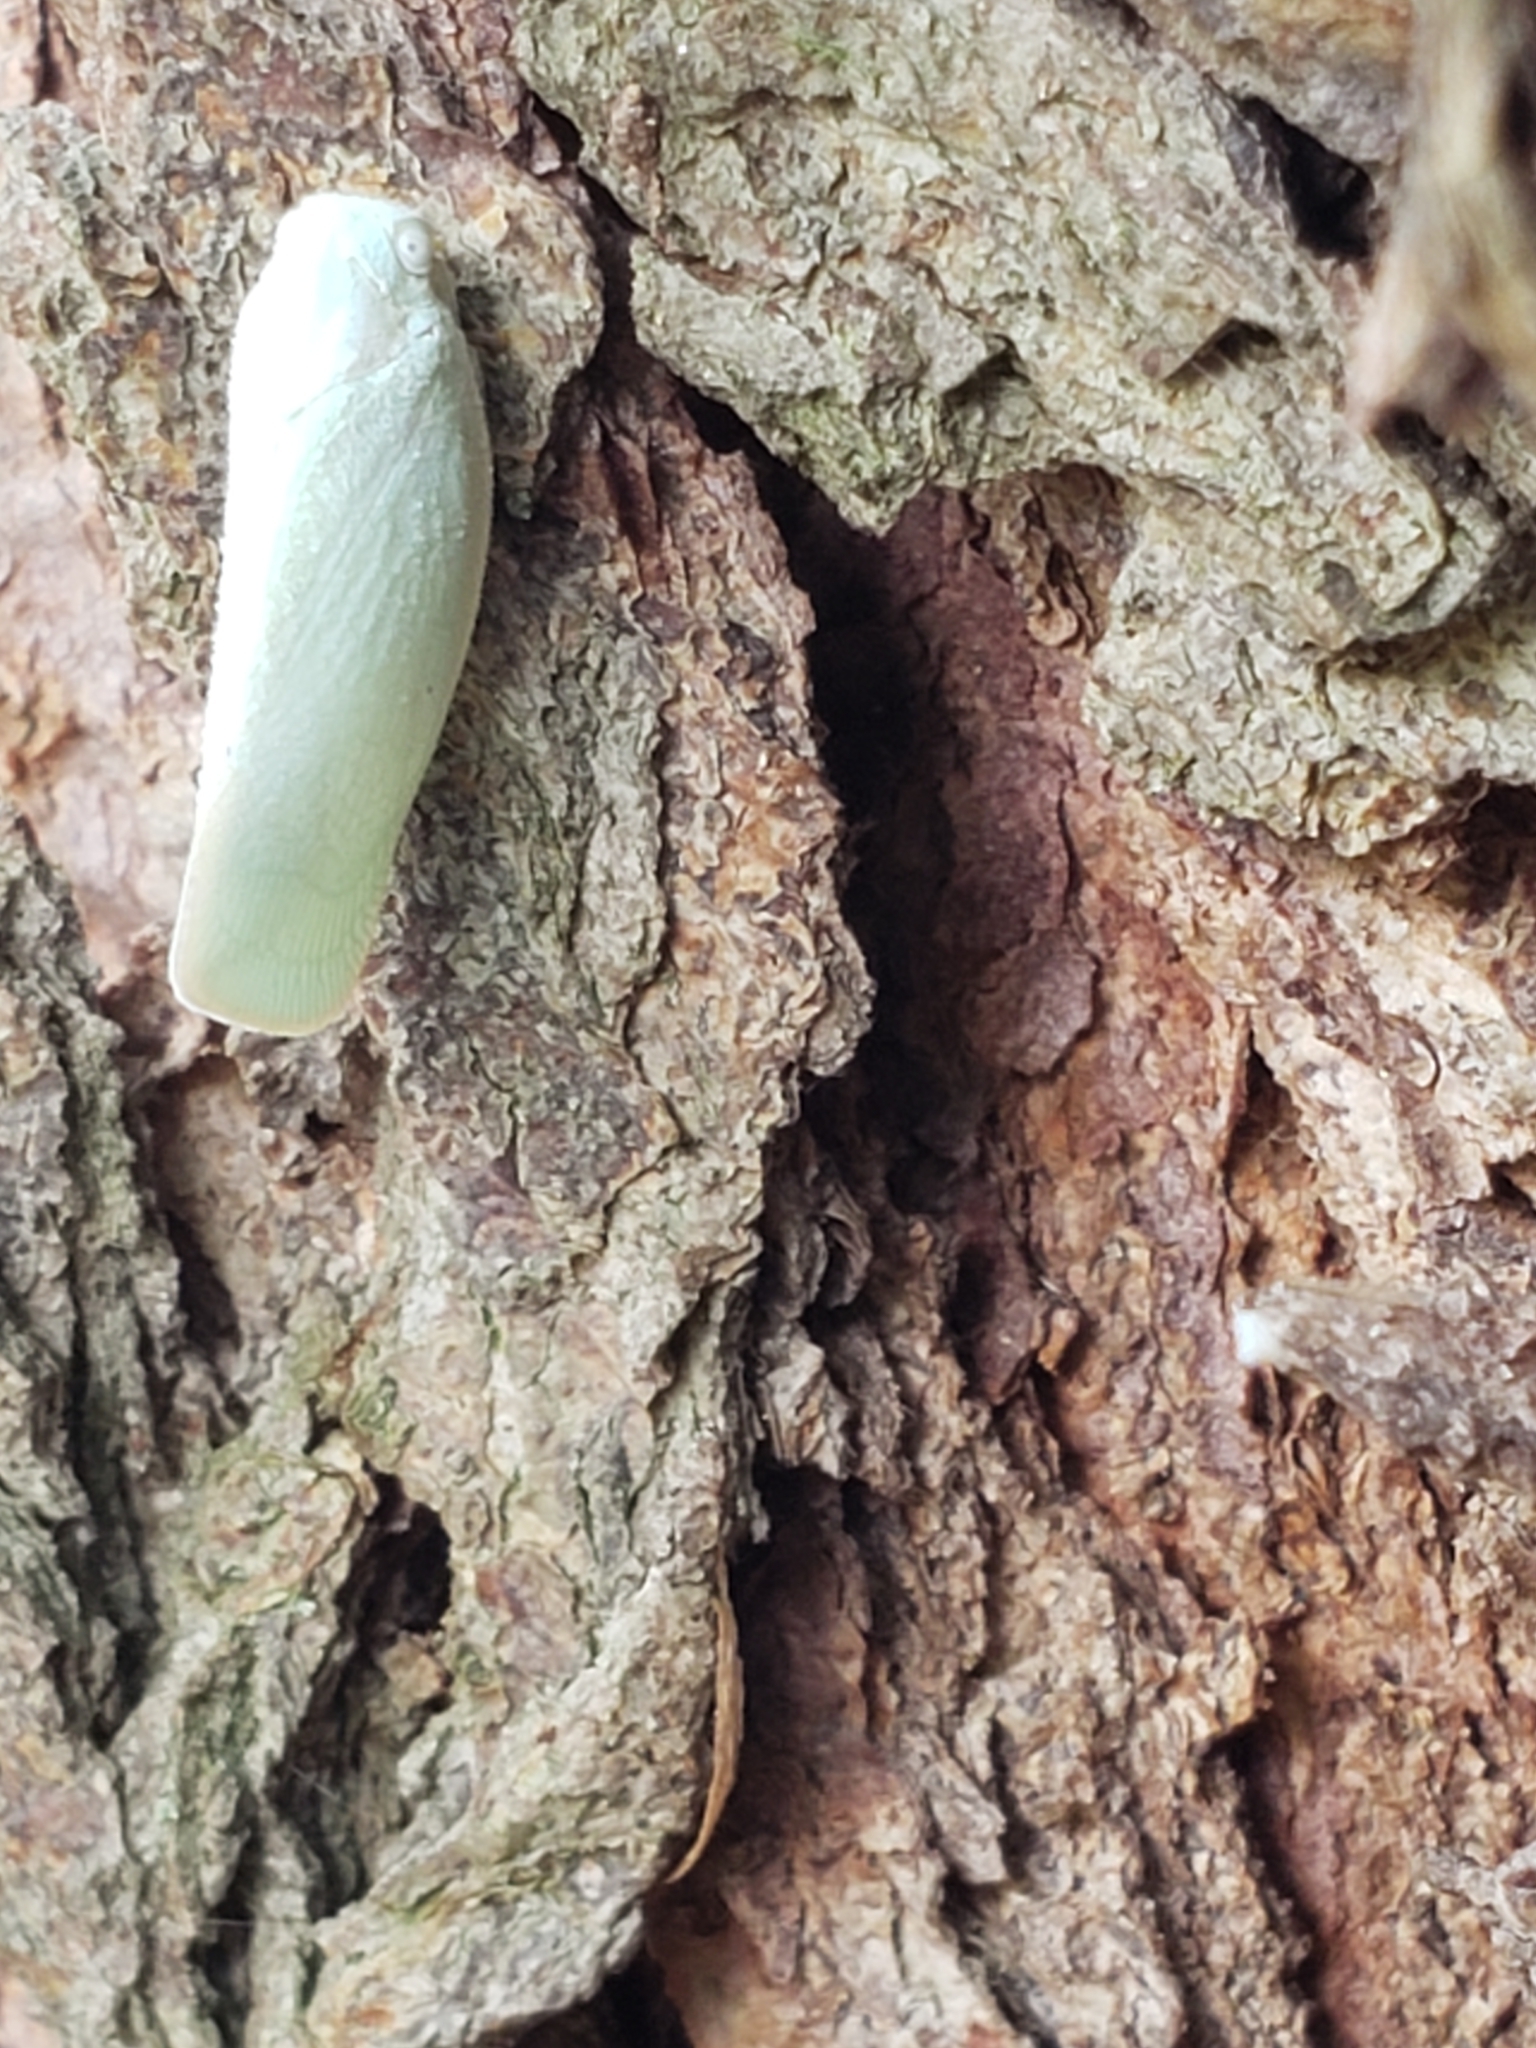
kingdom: Animalia
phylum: Arthropoda
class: Insecta
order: Hemiptera
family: Flatidae
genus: Flatormenis
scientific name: Flatormenis proxima
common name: Northern flatid planthopper
